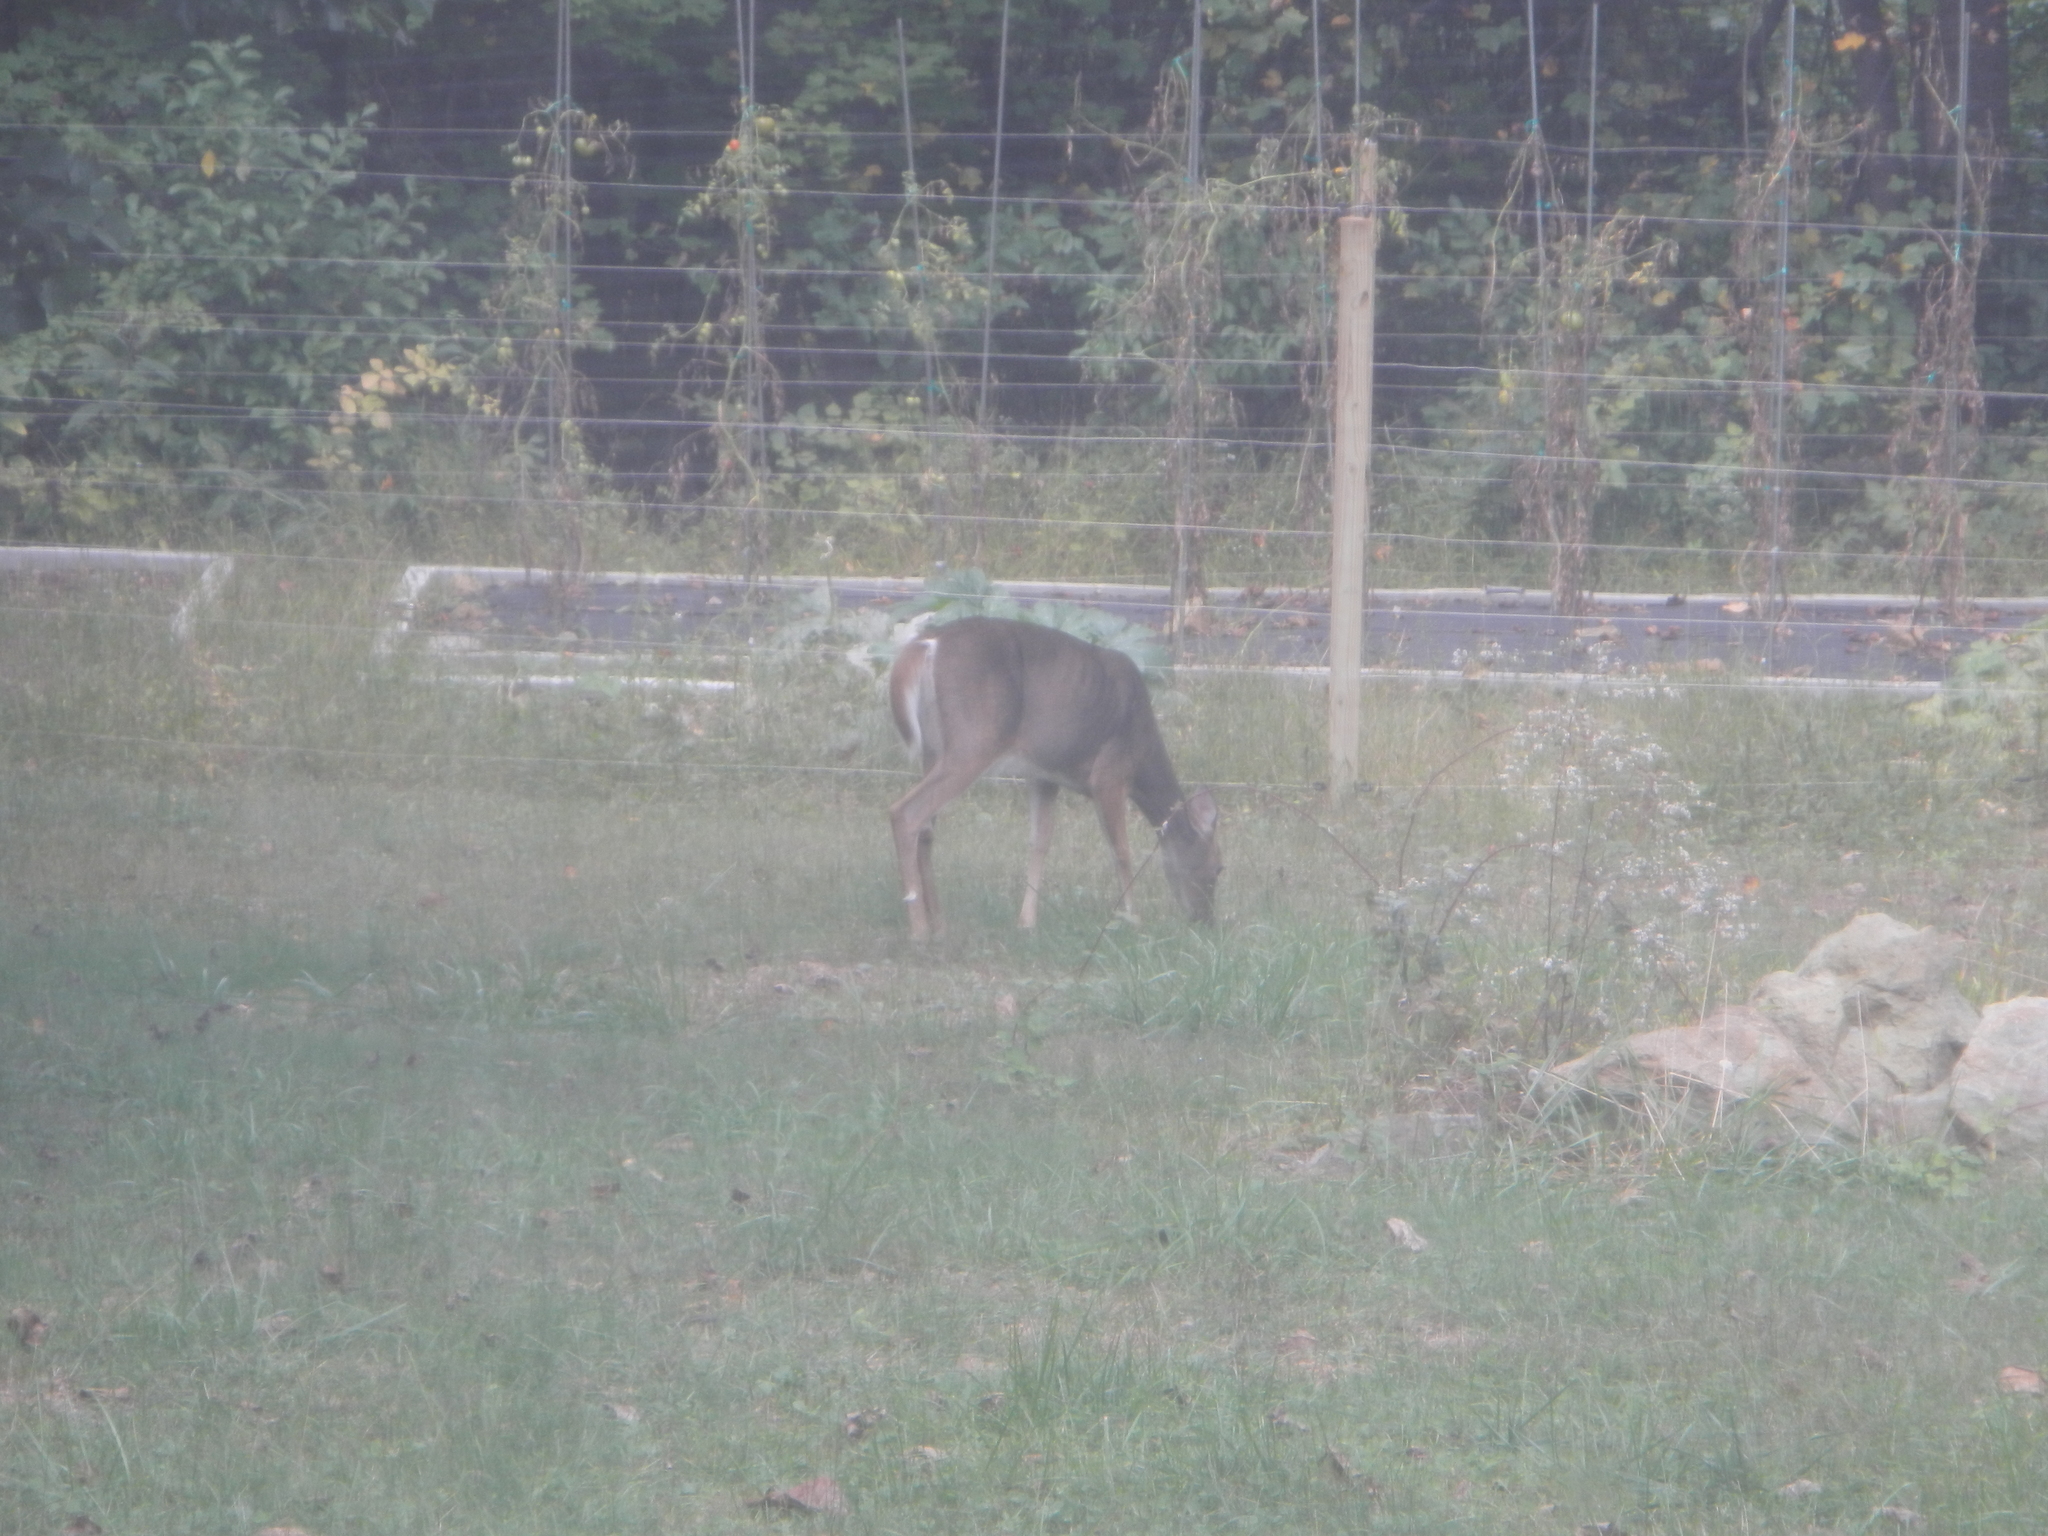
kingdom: Animalia
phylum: Chordata
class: Mammalia
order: Artiodactyla
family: Cervidae
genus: Odocoileus
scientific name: Odocoileus virginianus
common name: White-tailed deer
